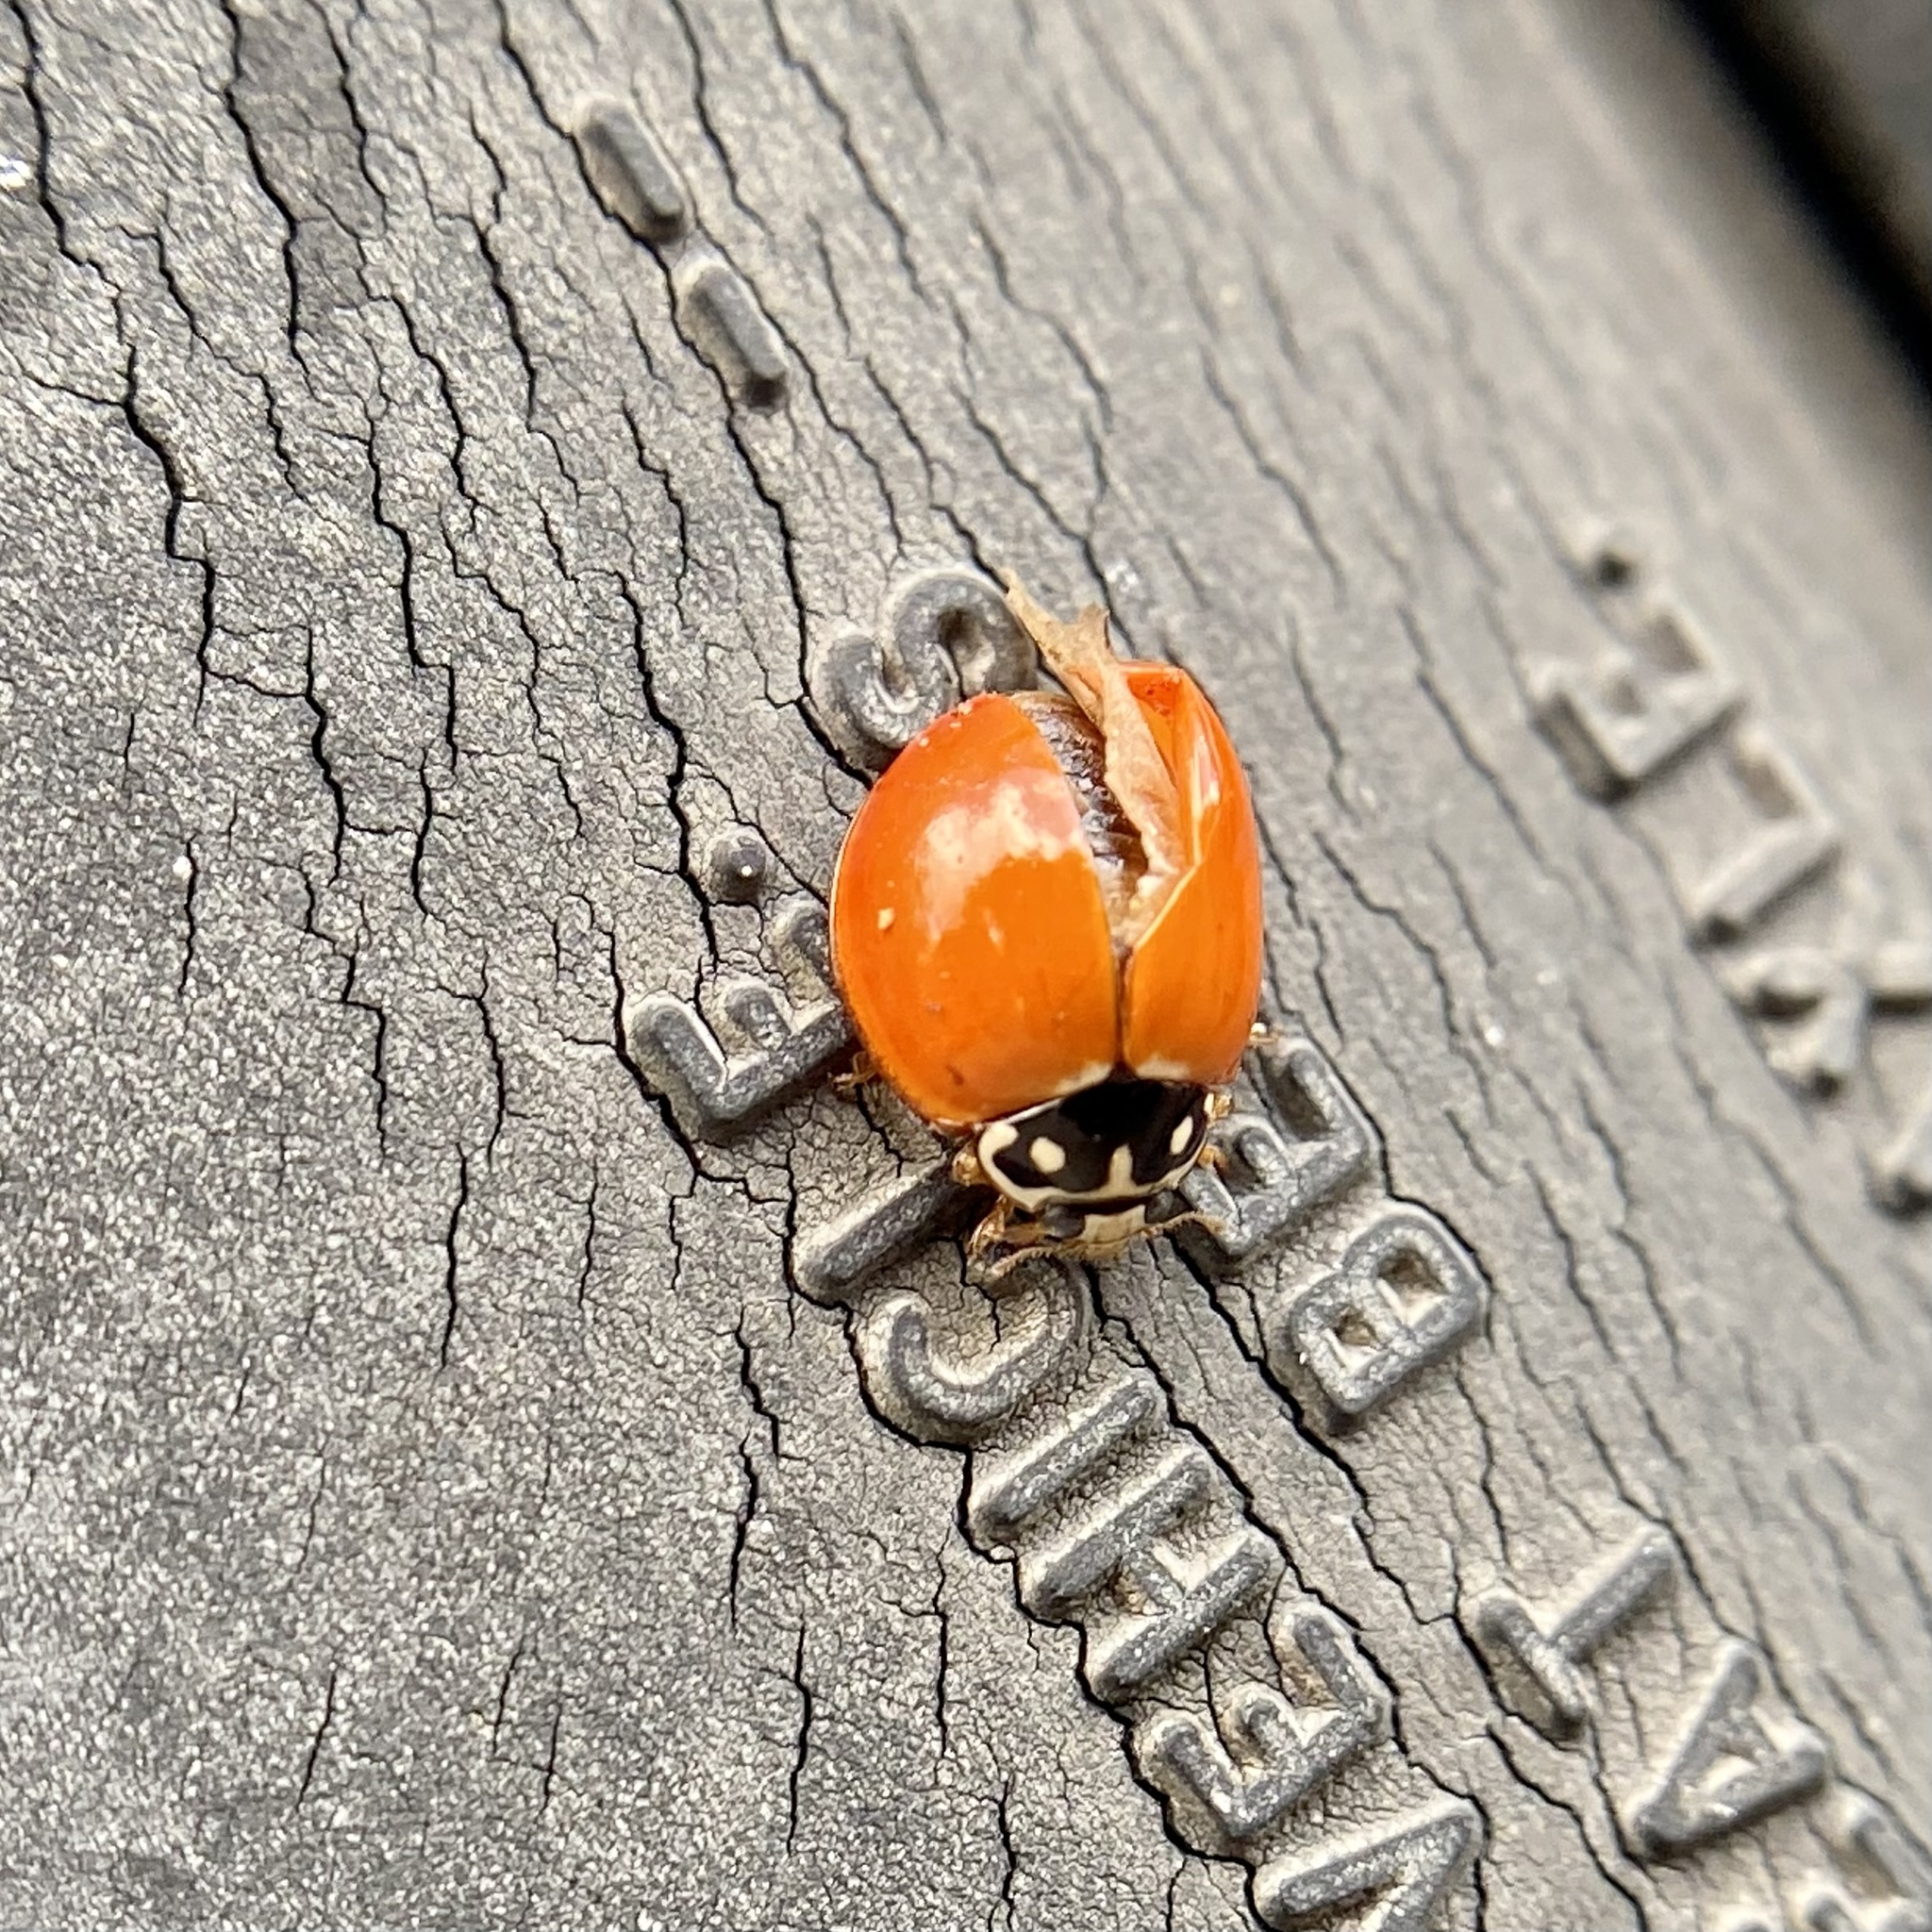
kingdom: Animalia
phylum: Arthropoda
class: Insecta
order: Coleoptera
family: Coccinellidae
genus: Cycloneda
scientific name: Cycloneda sanguinea
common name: Ladybird beetle
